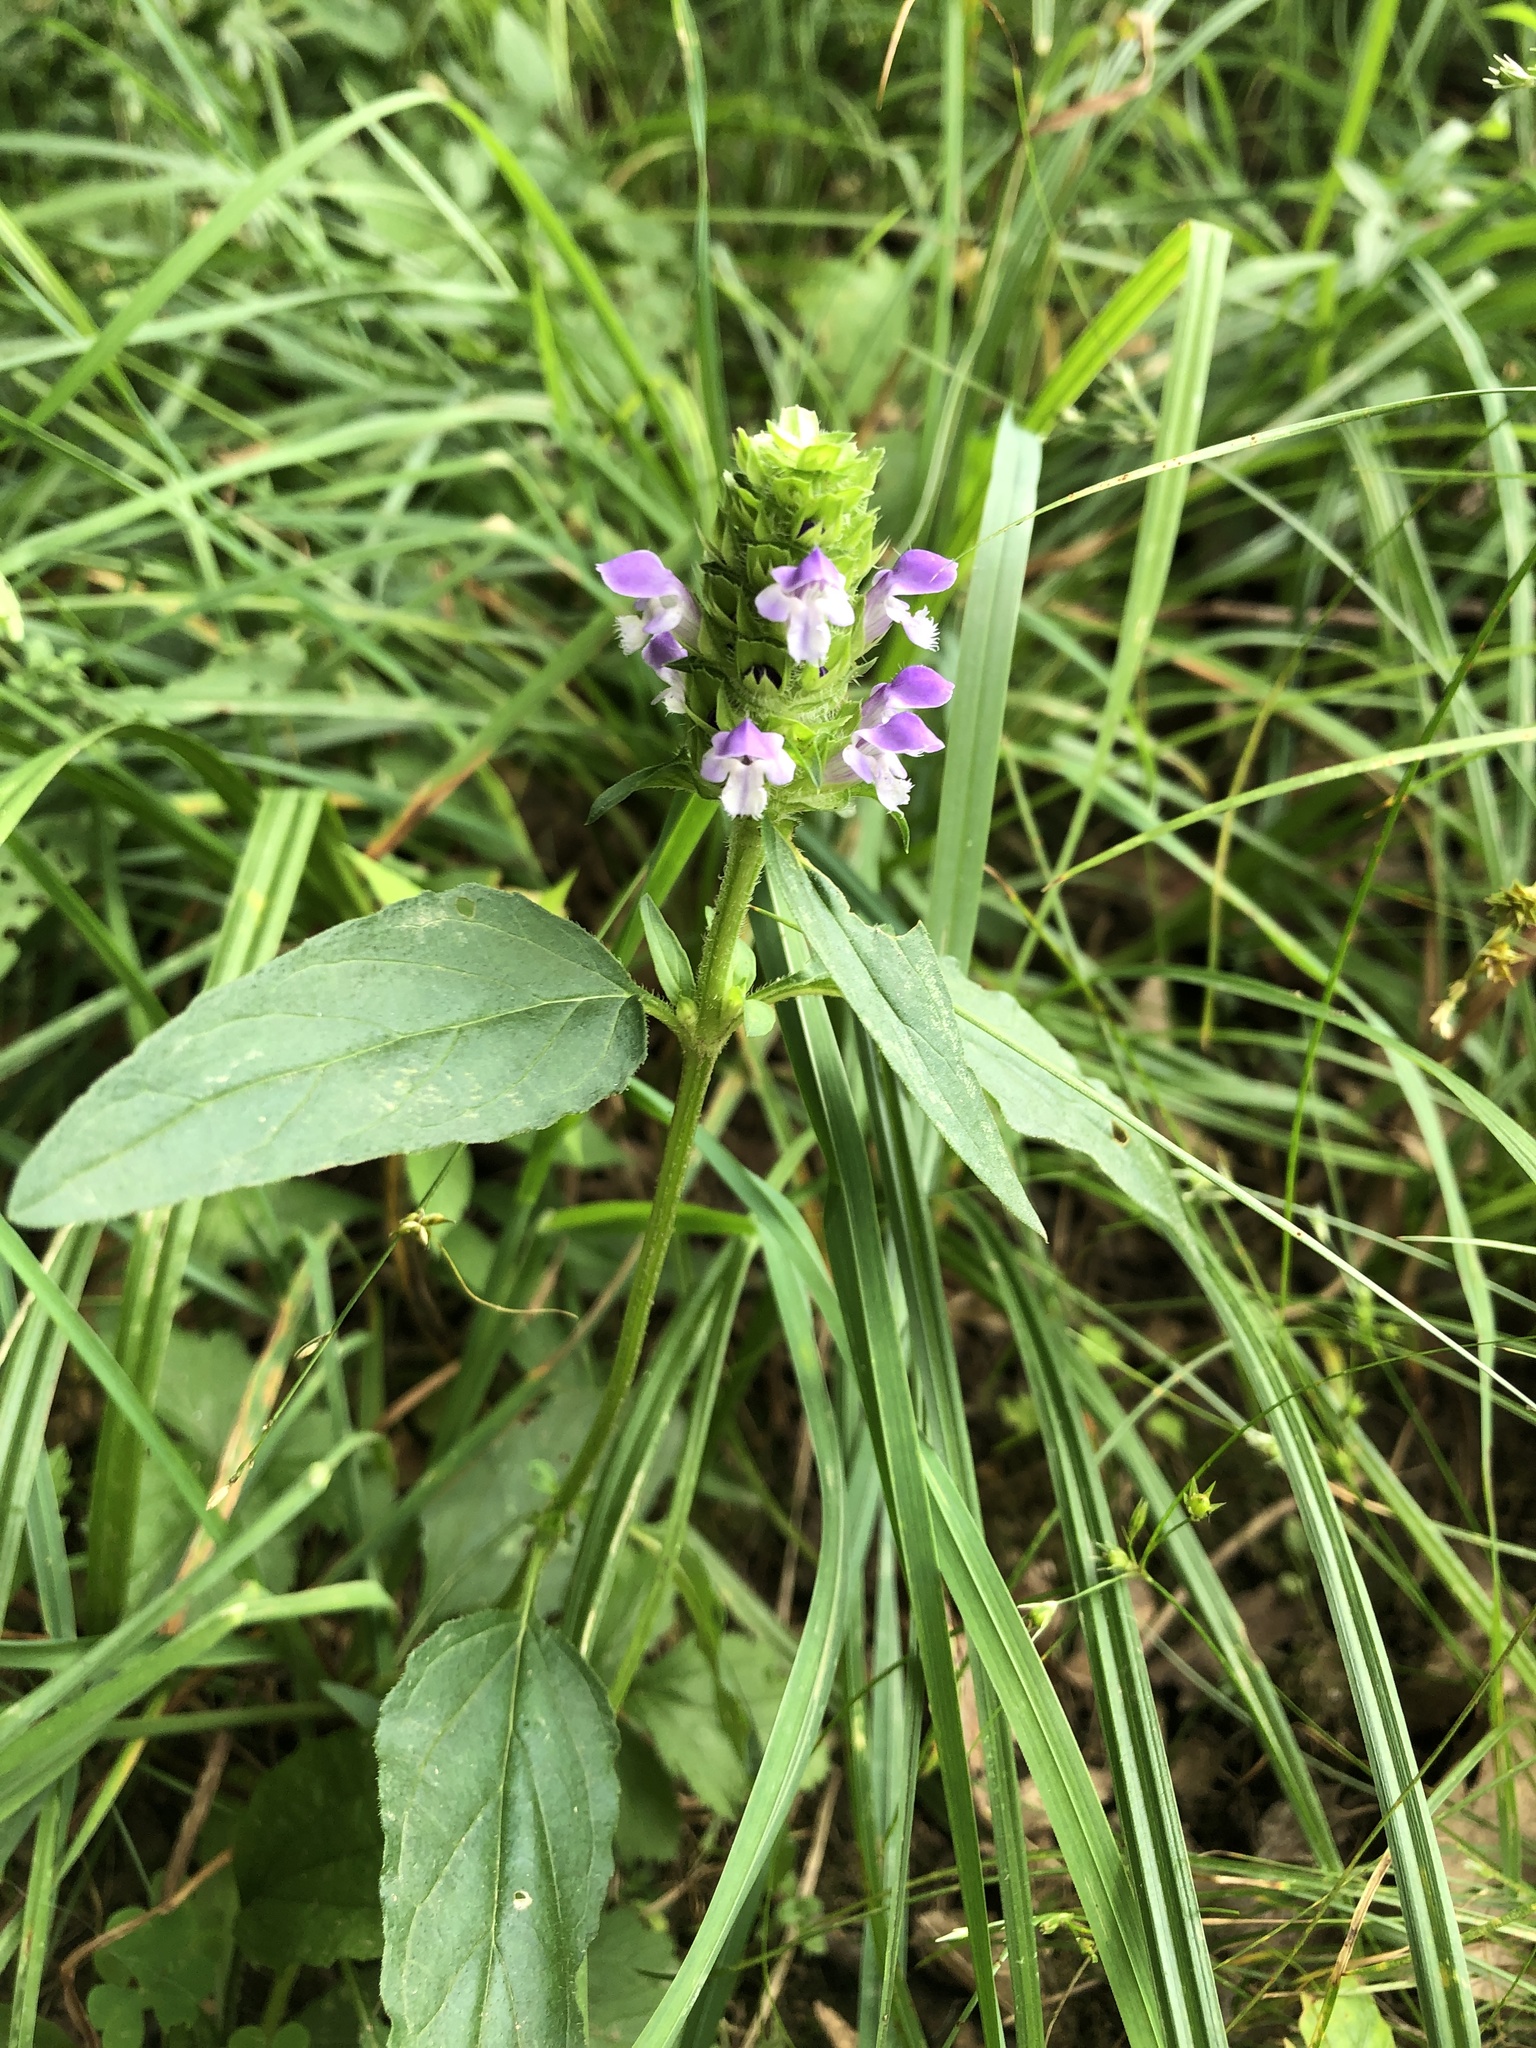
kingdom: Plantae
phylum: Tracheophyta
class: Magnoliopsida
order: Lamiales
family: Lamiaceae
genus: Prunella
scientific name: Prunella vulgaris
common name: Heal-all
